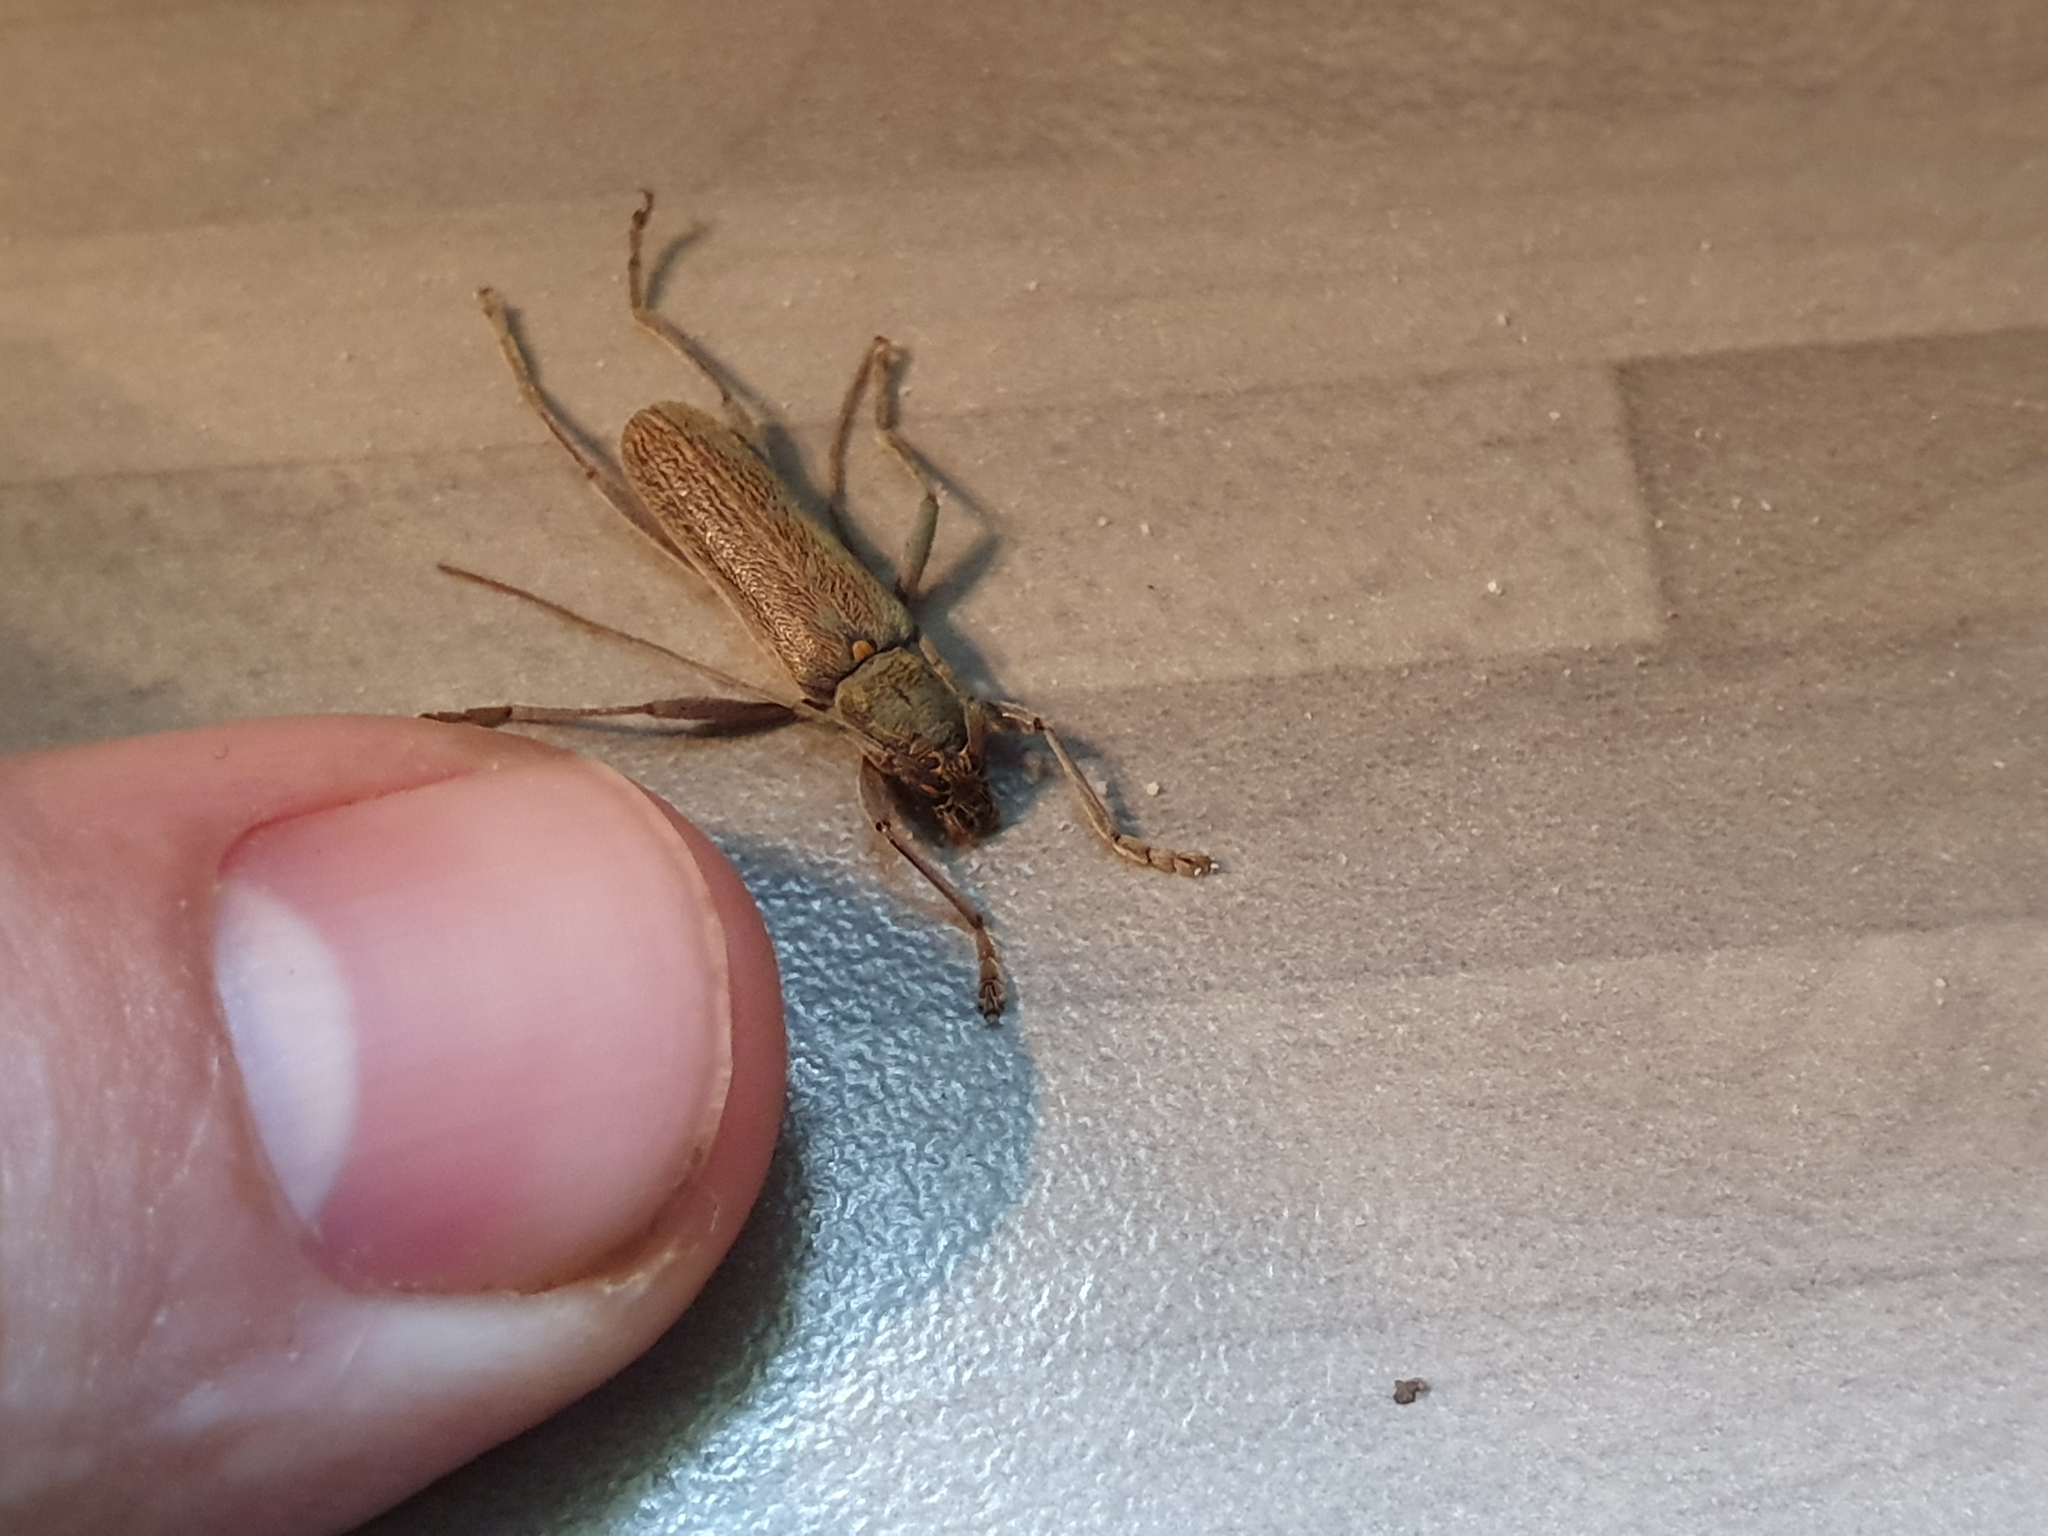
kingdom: Animalia
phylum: Arthropoda
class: Insecta
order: Coleoptera
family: Cerambycidae
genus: Oemona
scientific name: Oemona hirta
